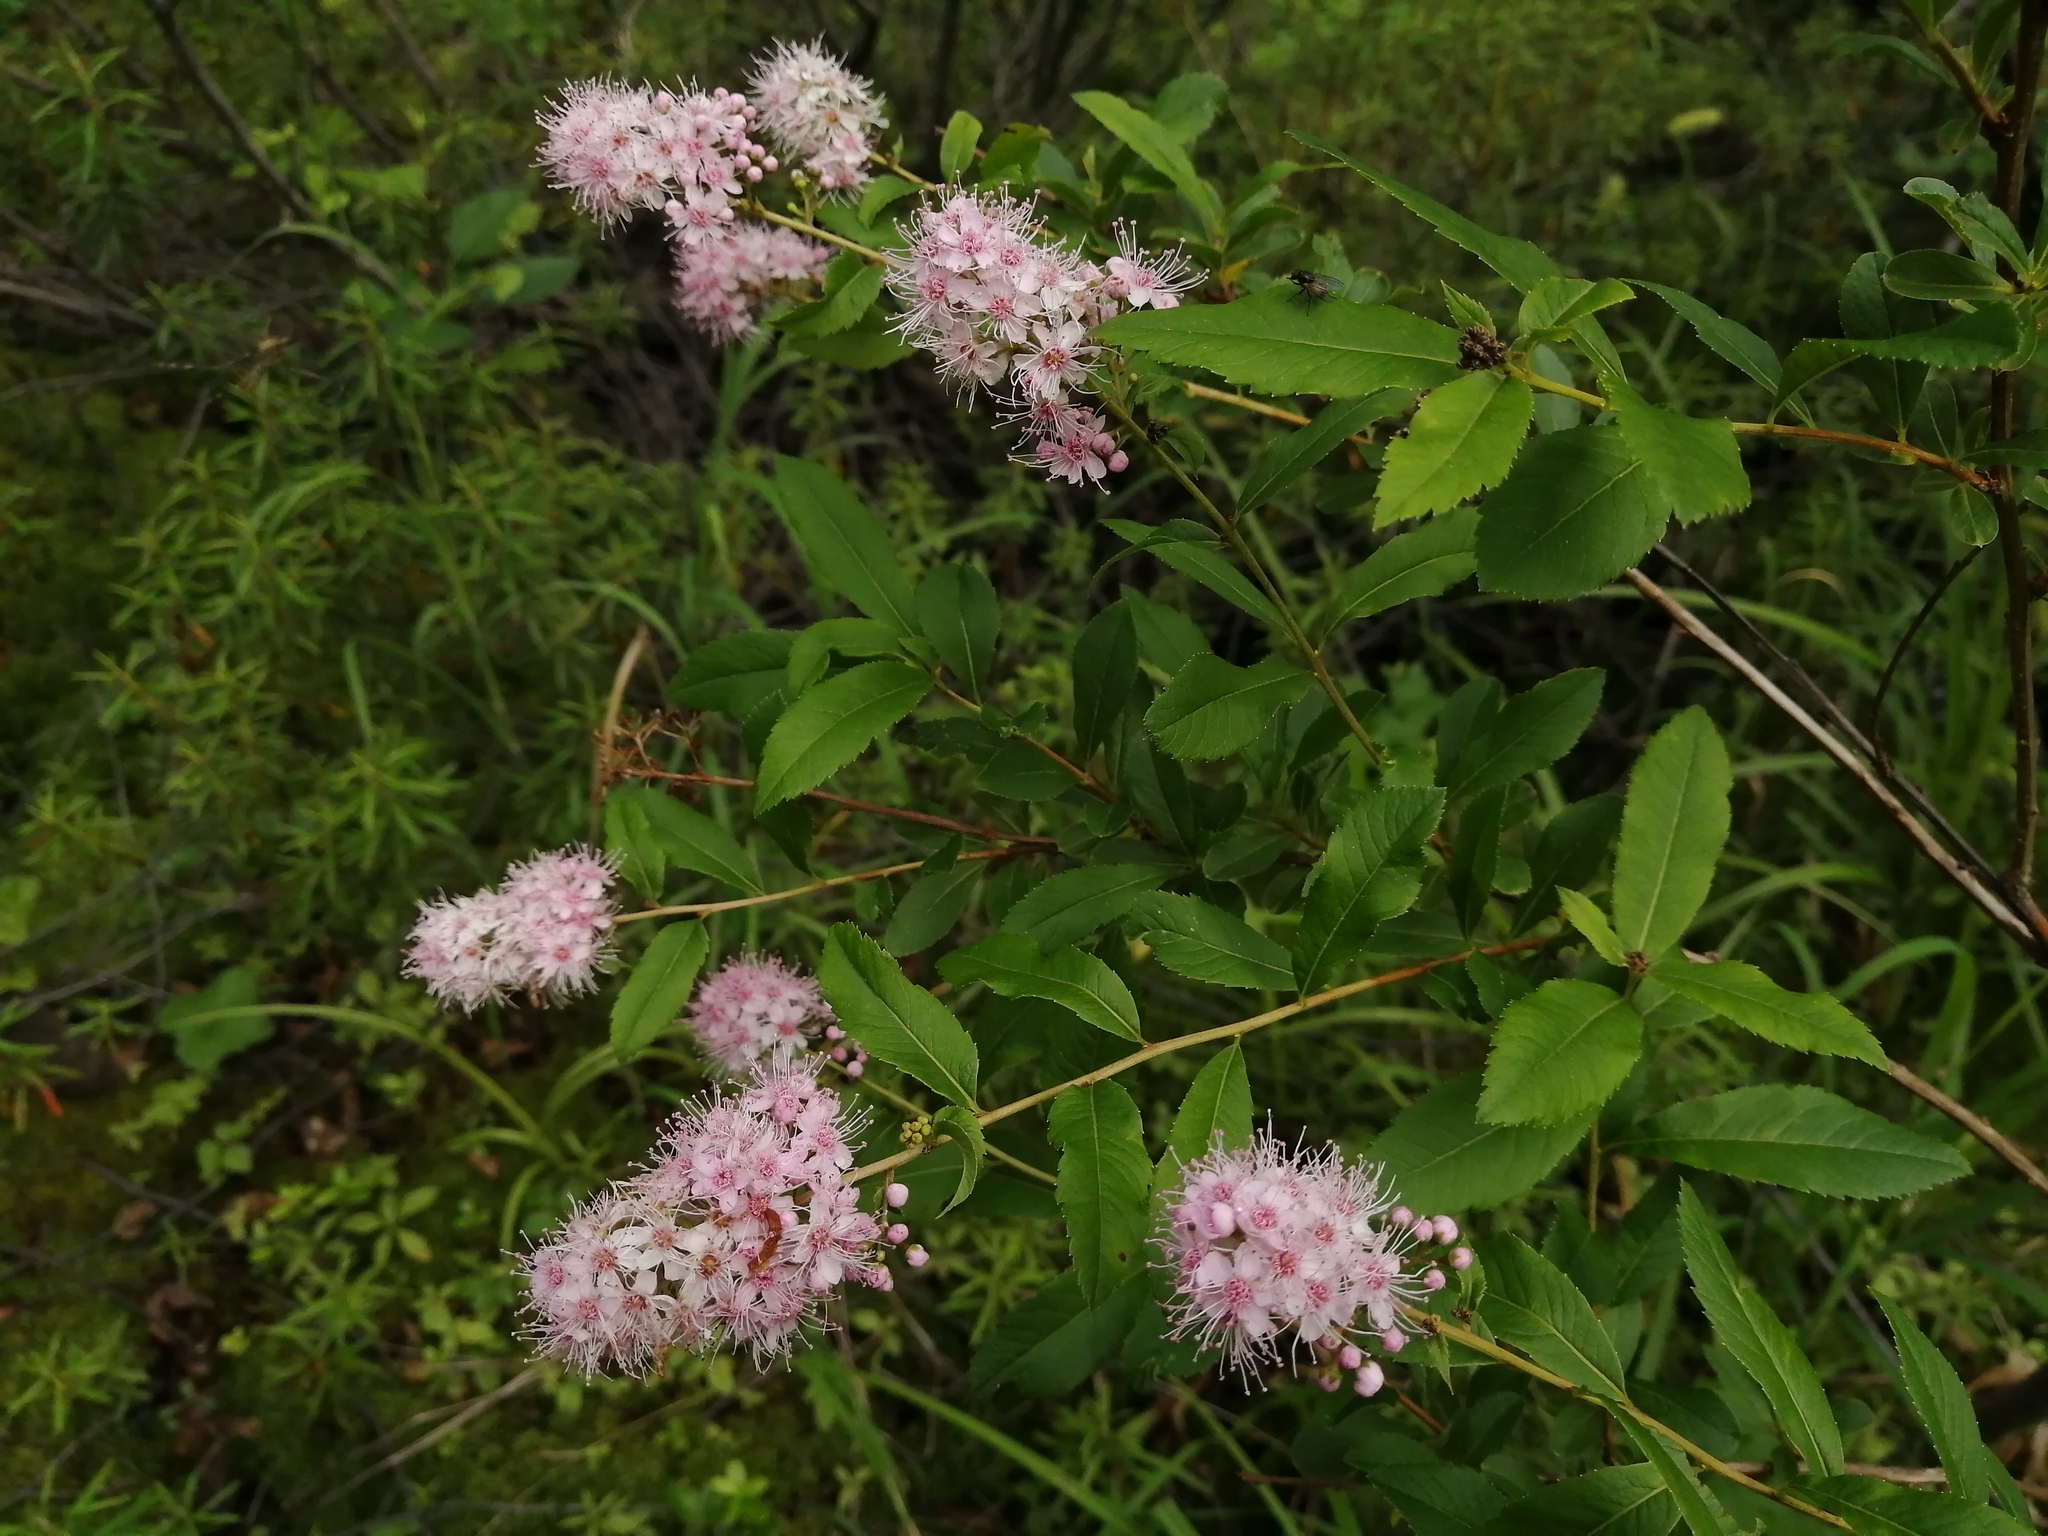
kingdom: Plantae
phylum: Tracheophyta
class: Magnoliopsida
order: Rosales
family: Rosaceae
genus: Spiraea
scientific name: Spiraea salicifolia
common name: Bridewort
